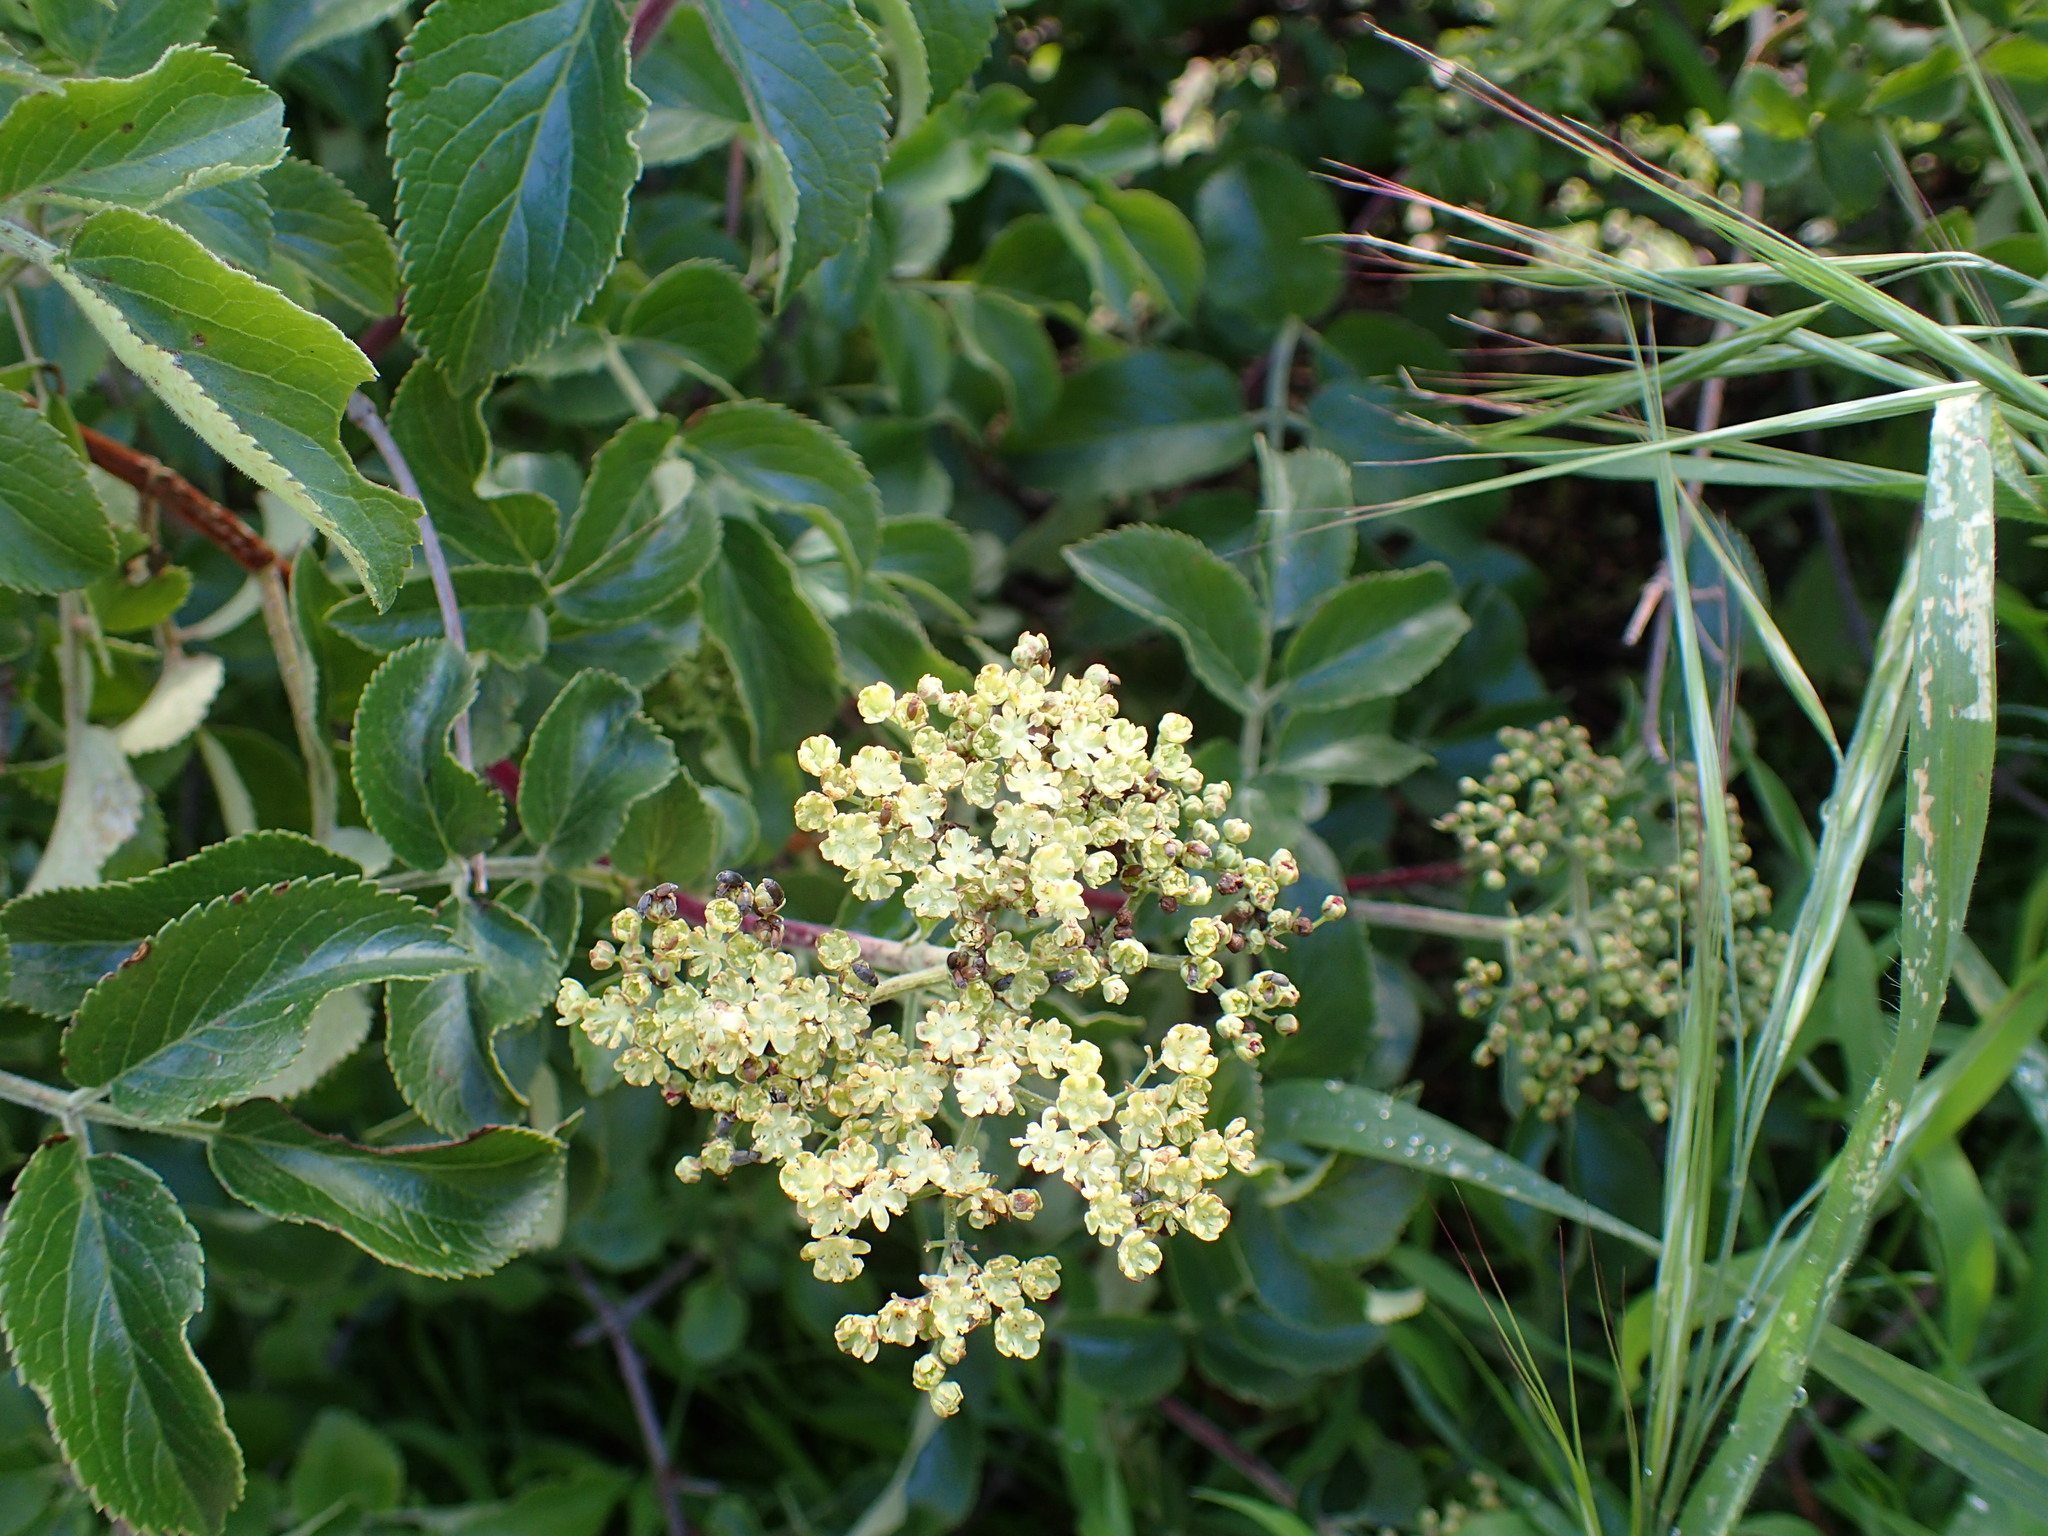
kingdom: Plantae
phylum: Tracheophyta
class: Magnoliopsida
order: Dipsacales
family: Viburnaceae
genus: Sambucus
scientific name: Sambucus cerulea
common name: Blue elder
